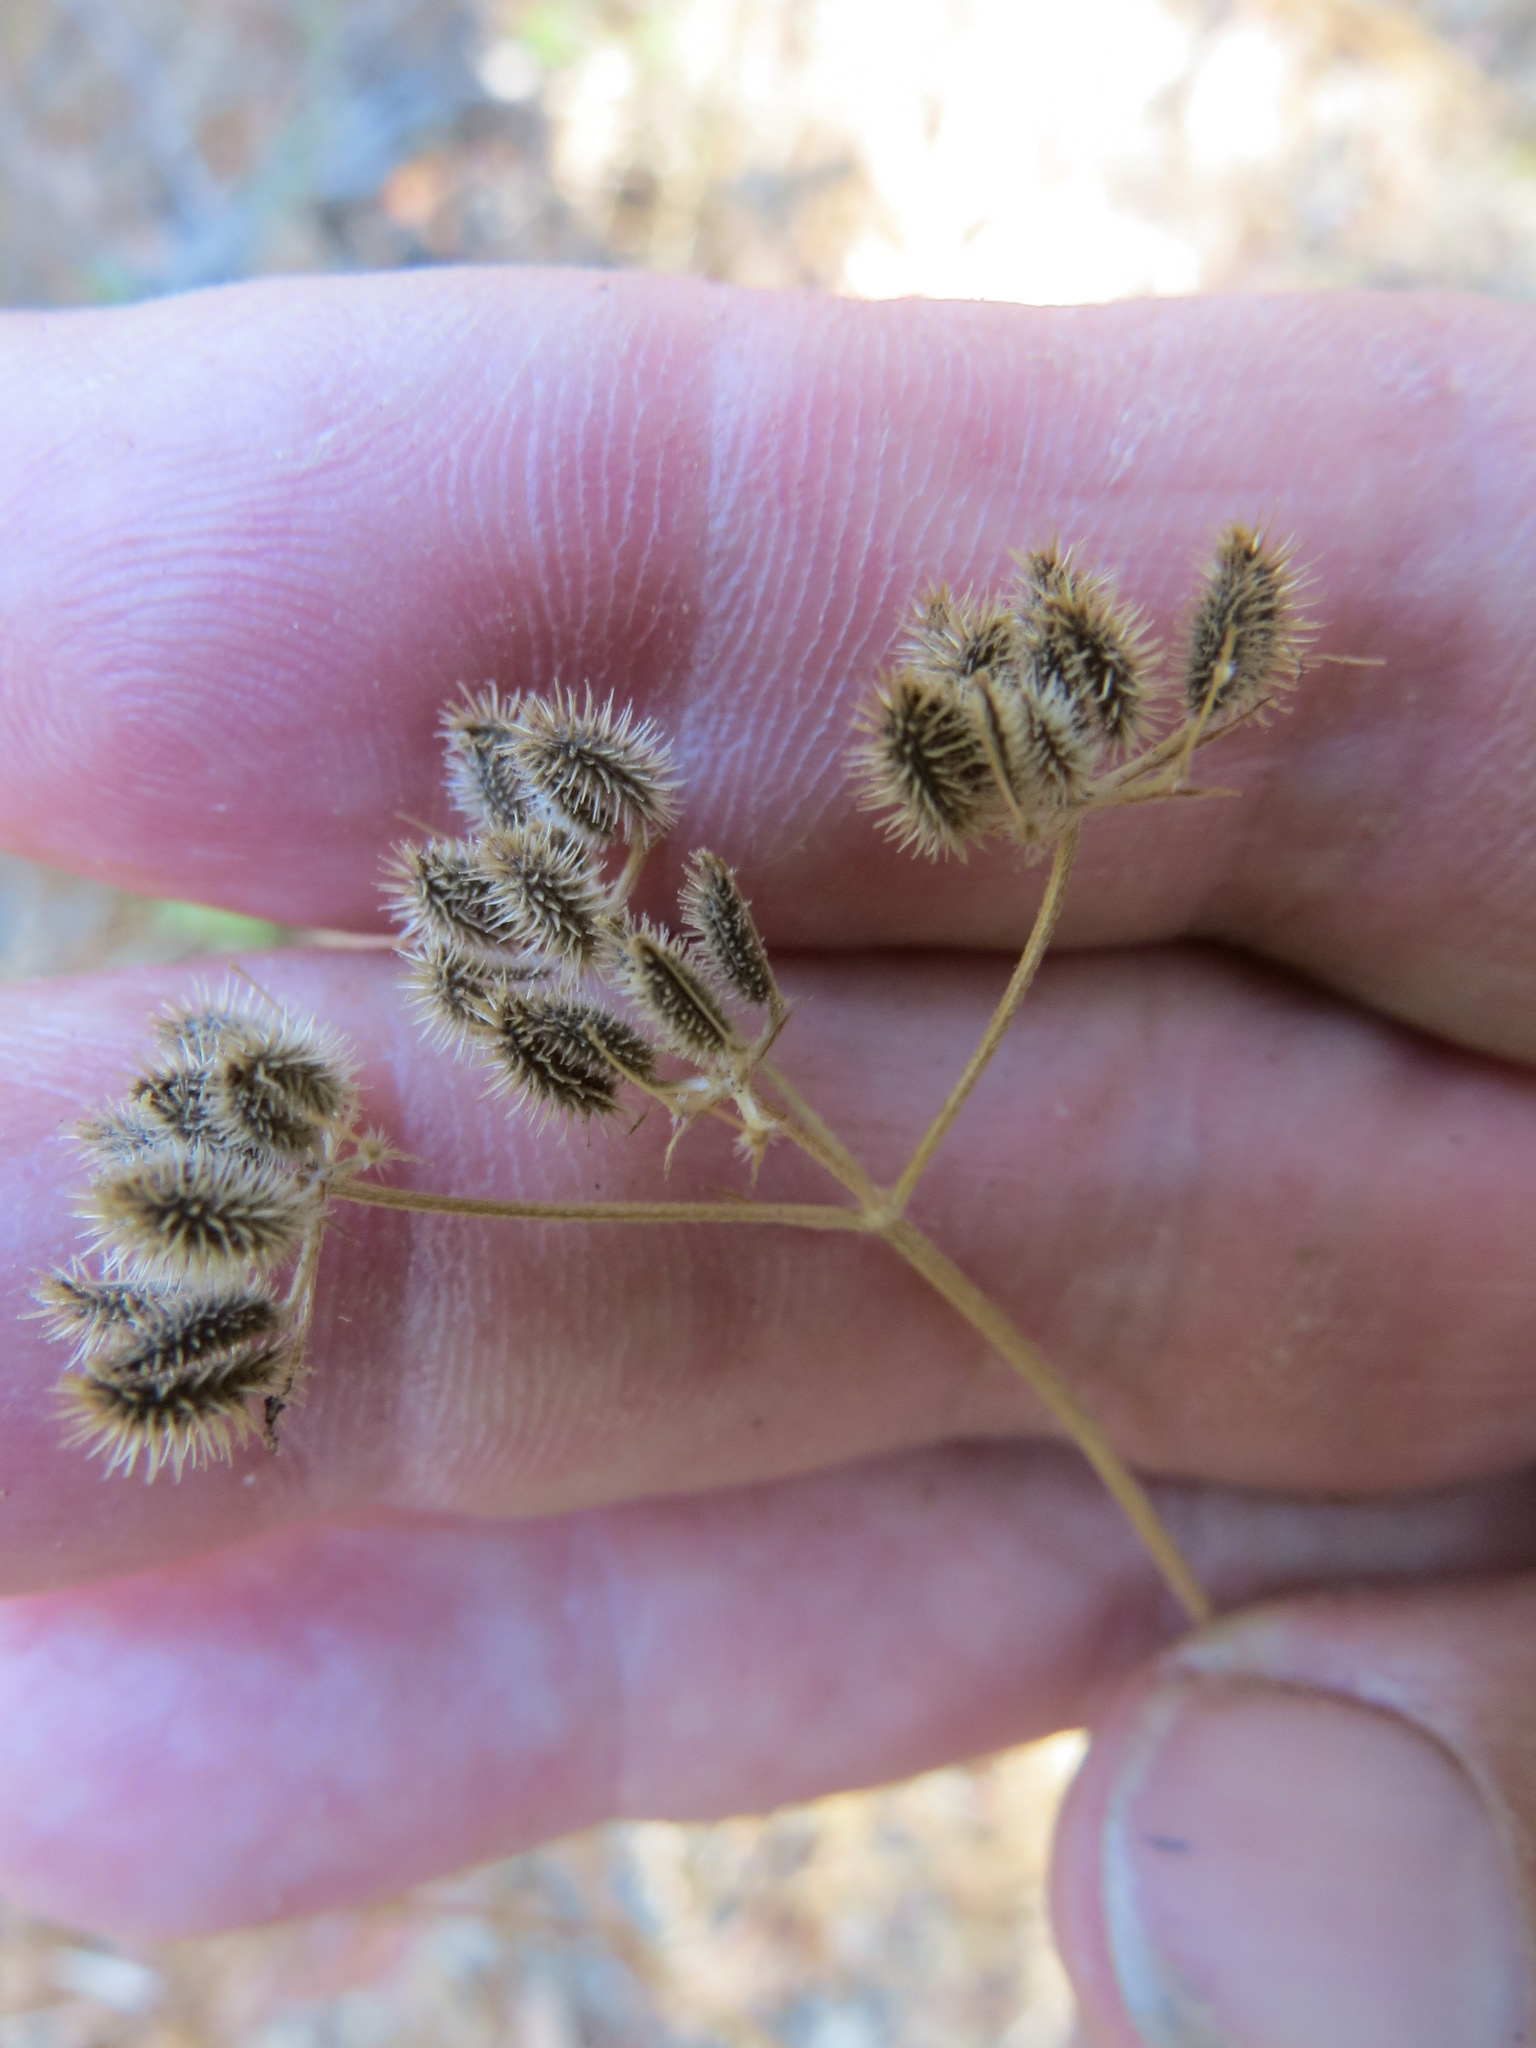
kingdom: Plantae
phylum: Tracheophyta
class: Magnoliopsida
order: Apiales
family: Apiaceae
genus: Torilis
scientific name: Torilis arvensis
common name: Spreading hedge-parsley
